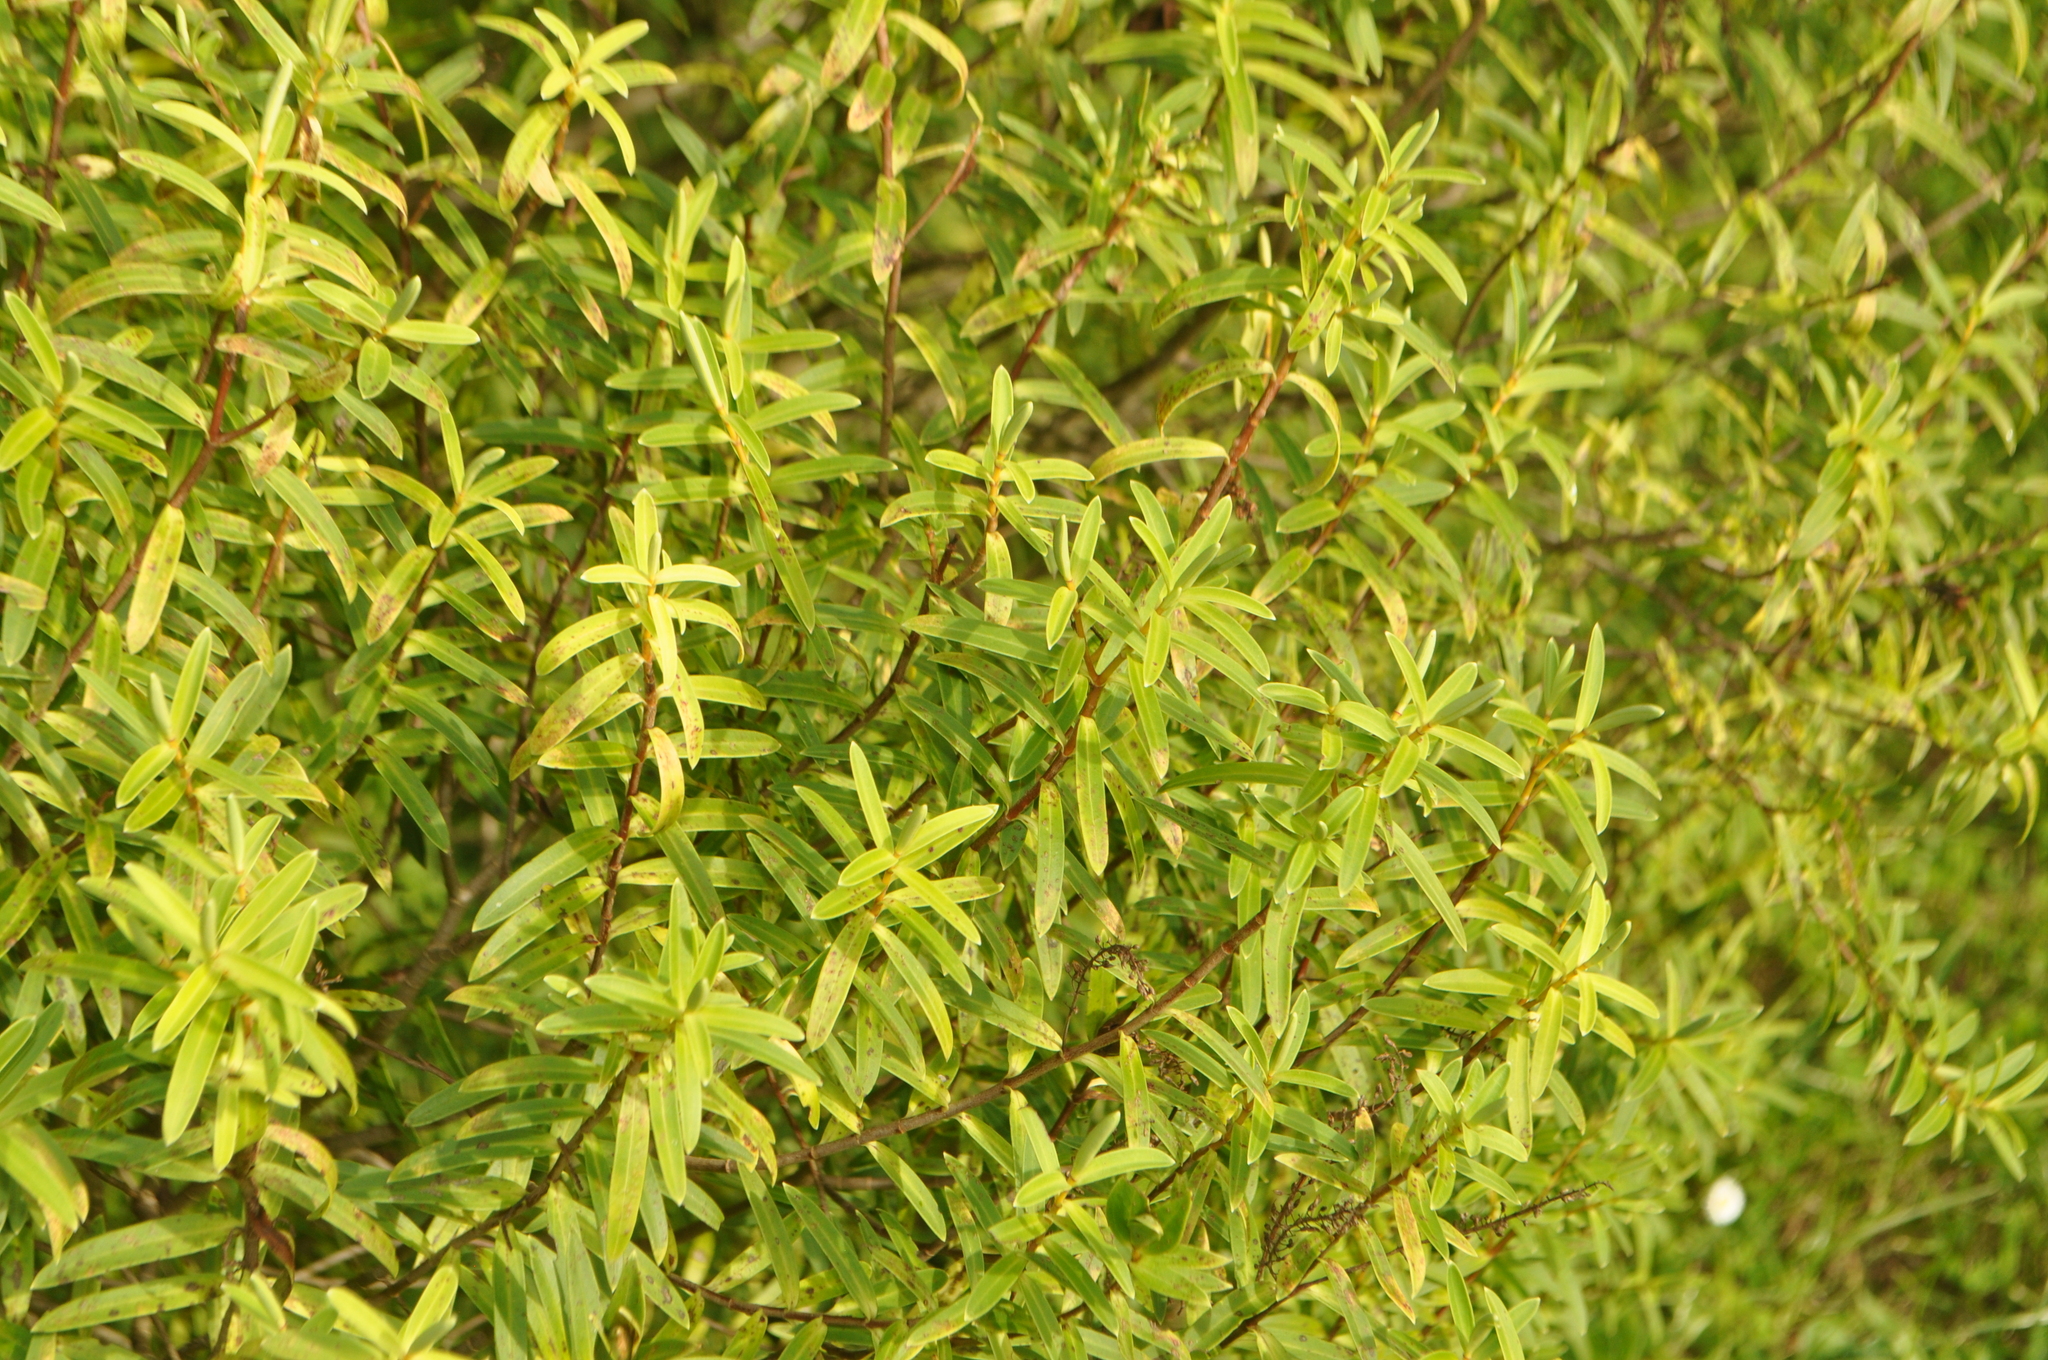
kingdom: Plantae
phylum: Tracheophyta
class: Magnoliopsida
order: Lamiales
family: Plantaginaceae
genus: Veronica
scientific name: Veronica parviflora
